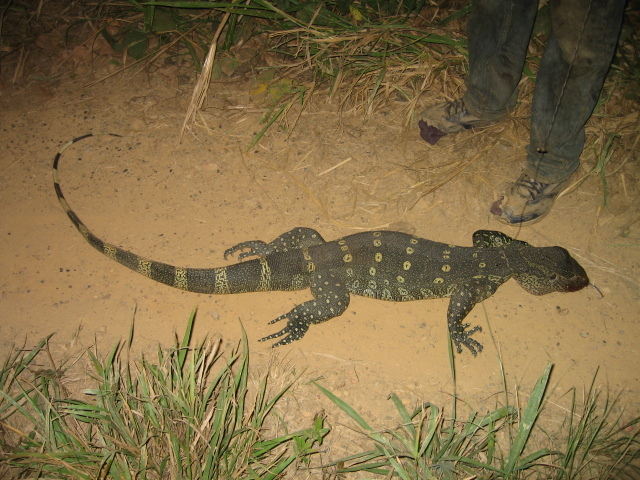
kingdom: Animalia
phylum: Chordata
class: Squamata
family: Varanidae
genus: Varanus
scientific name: Varanus niloticus
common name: Nile monitor
